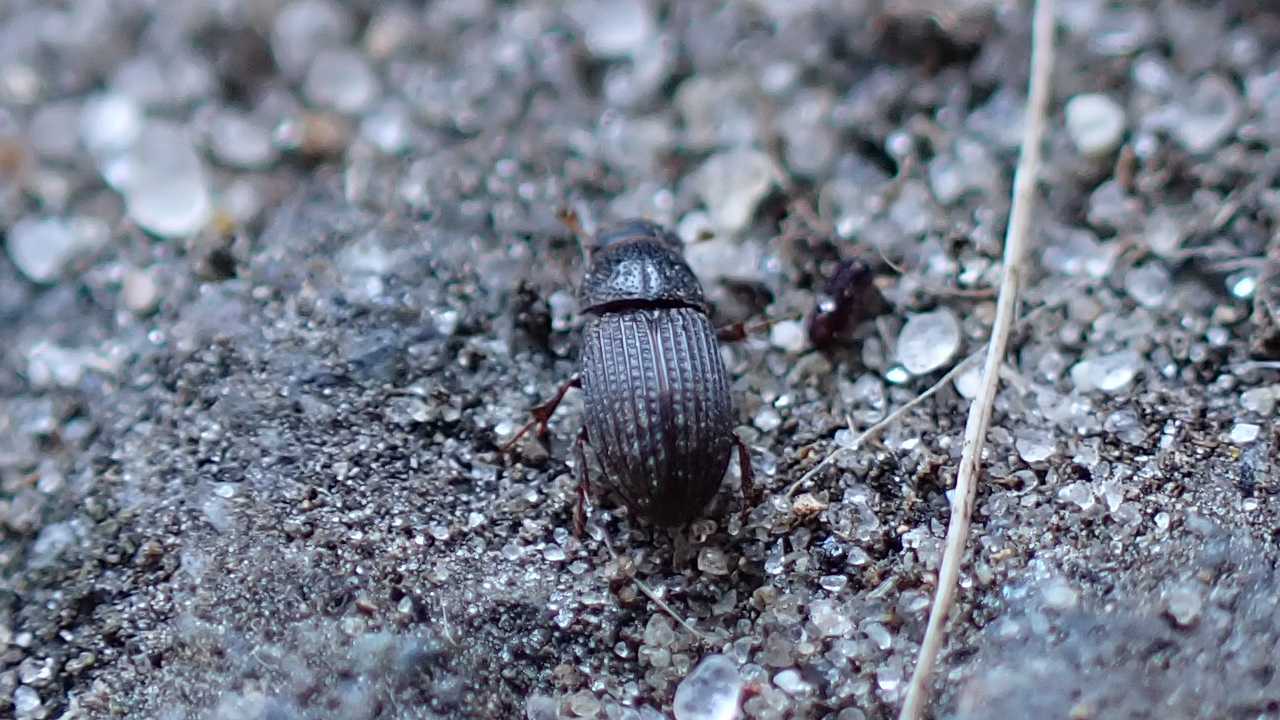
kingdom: Animalia
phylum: Arthropoda
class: Insecta
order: Coleoptera
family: Scarabaeidae
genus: Oxyomus
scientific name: Oxyomus sylvestris
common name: Forest small dung beetle
